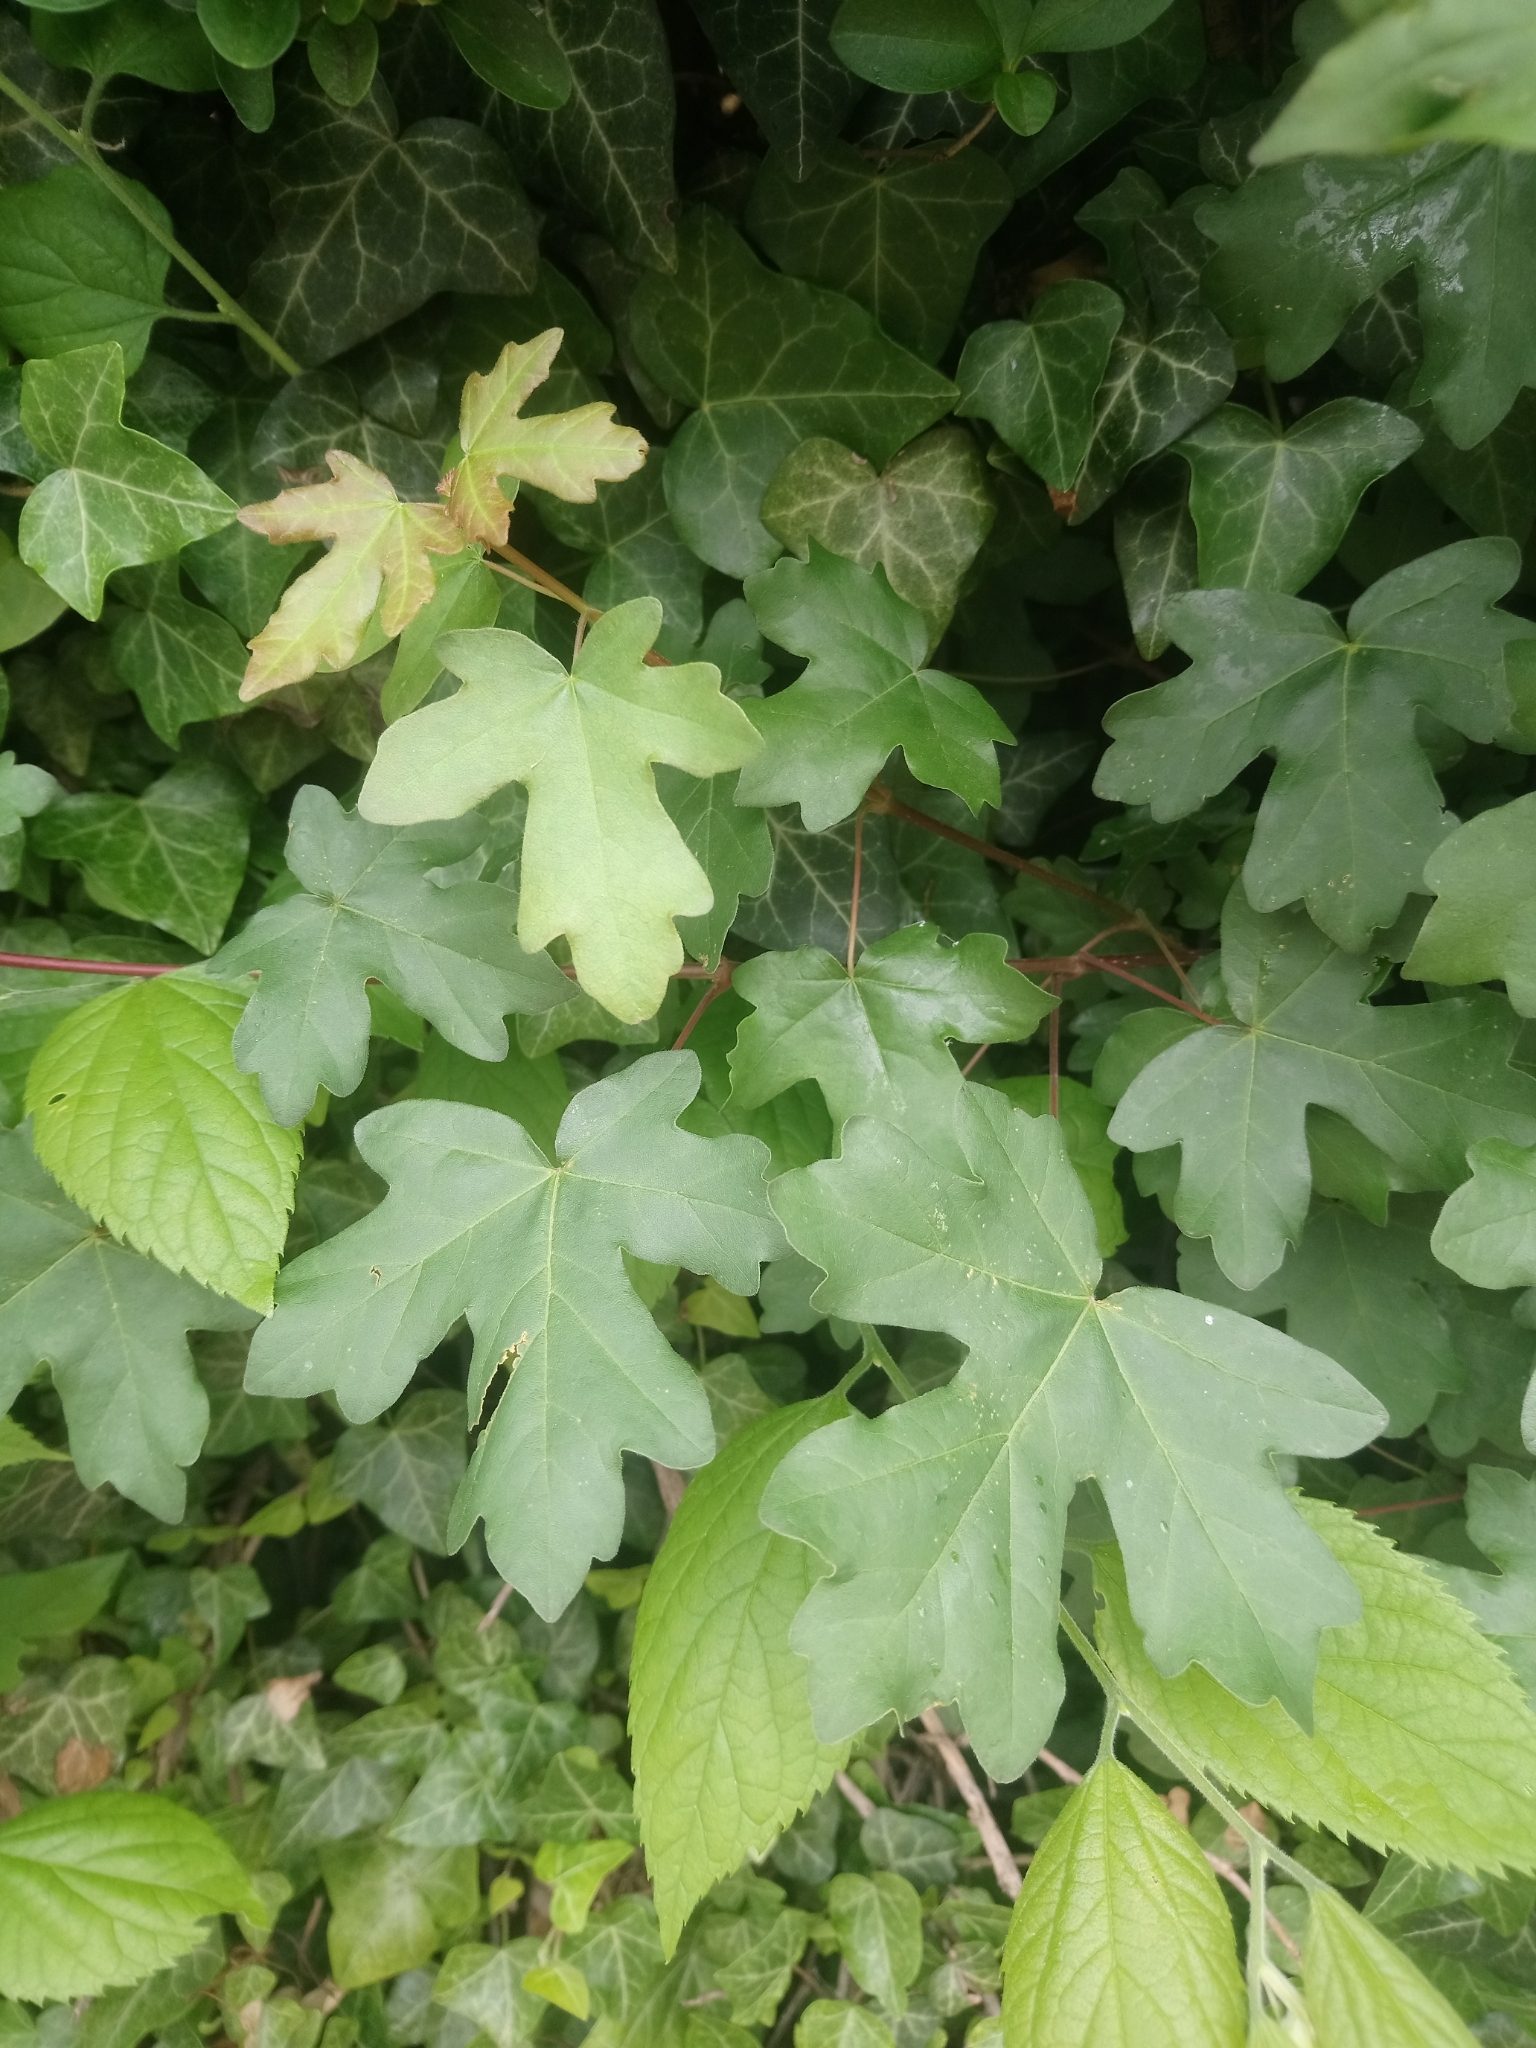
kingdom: Plantae
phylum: Tracheophyta
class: Magnoliopsida
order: Sapindales
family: Sapindaceae
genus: Acer
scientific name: Acer campestre
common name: Field maple
